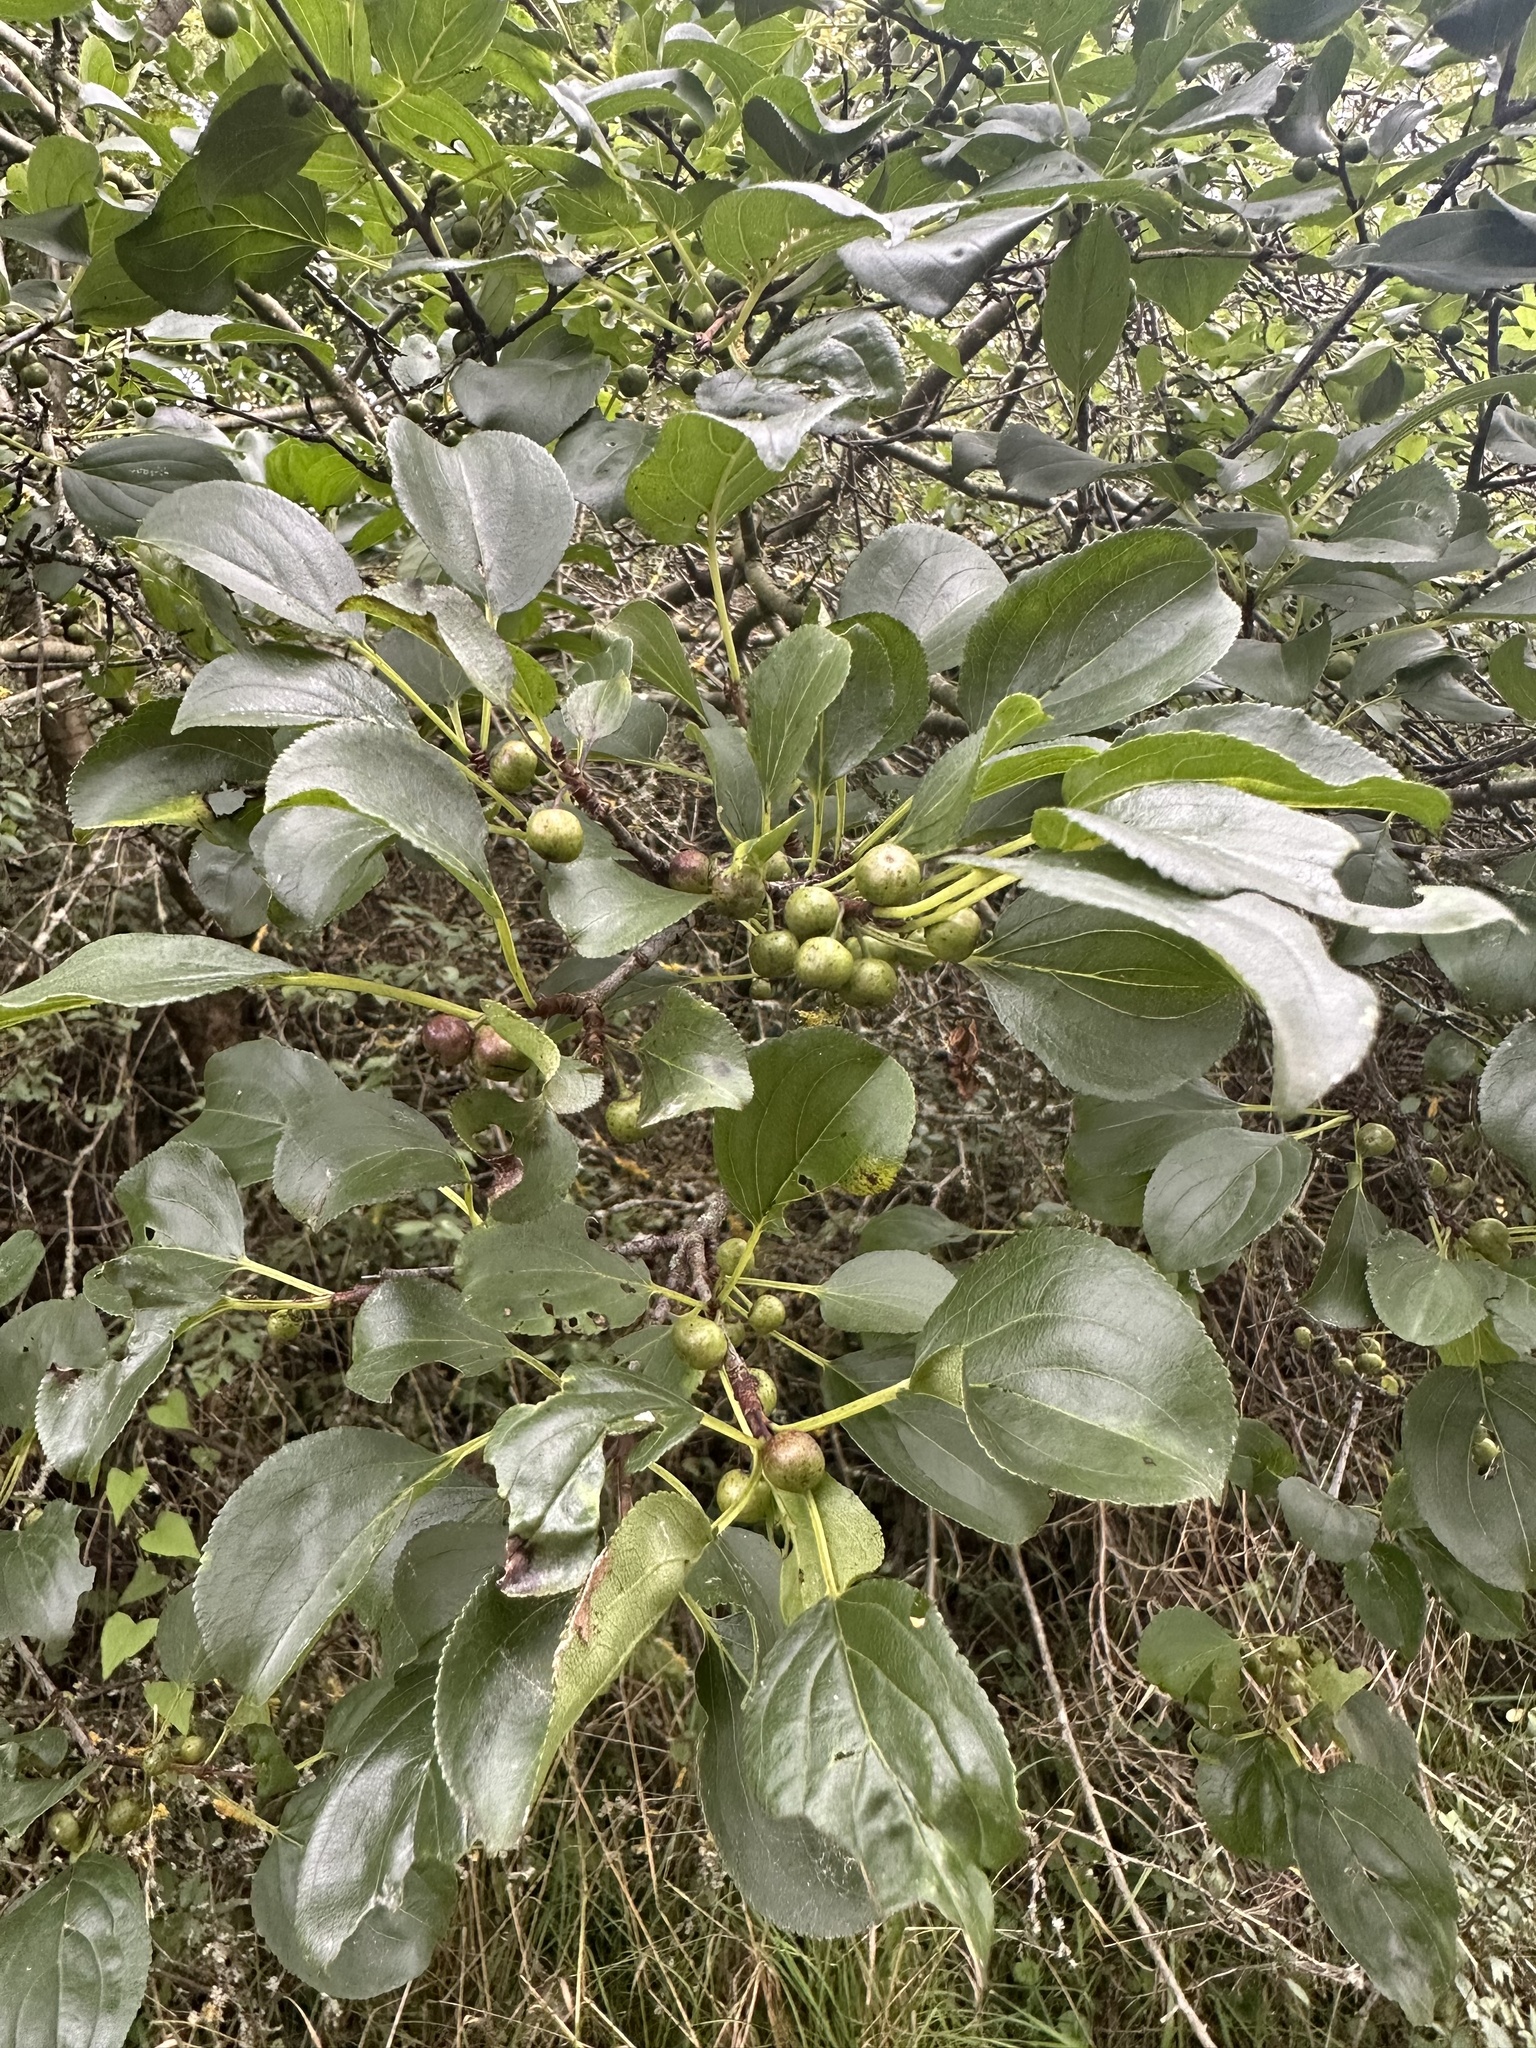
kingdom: Plantae
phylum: Tracheophyta
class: Magnoliopsida
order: Rosales
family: Rhamnaceae
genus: Rhamnus
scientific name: Rhamnus cathartica
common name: Common buckthorn
